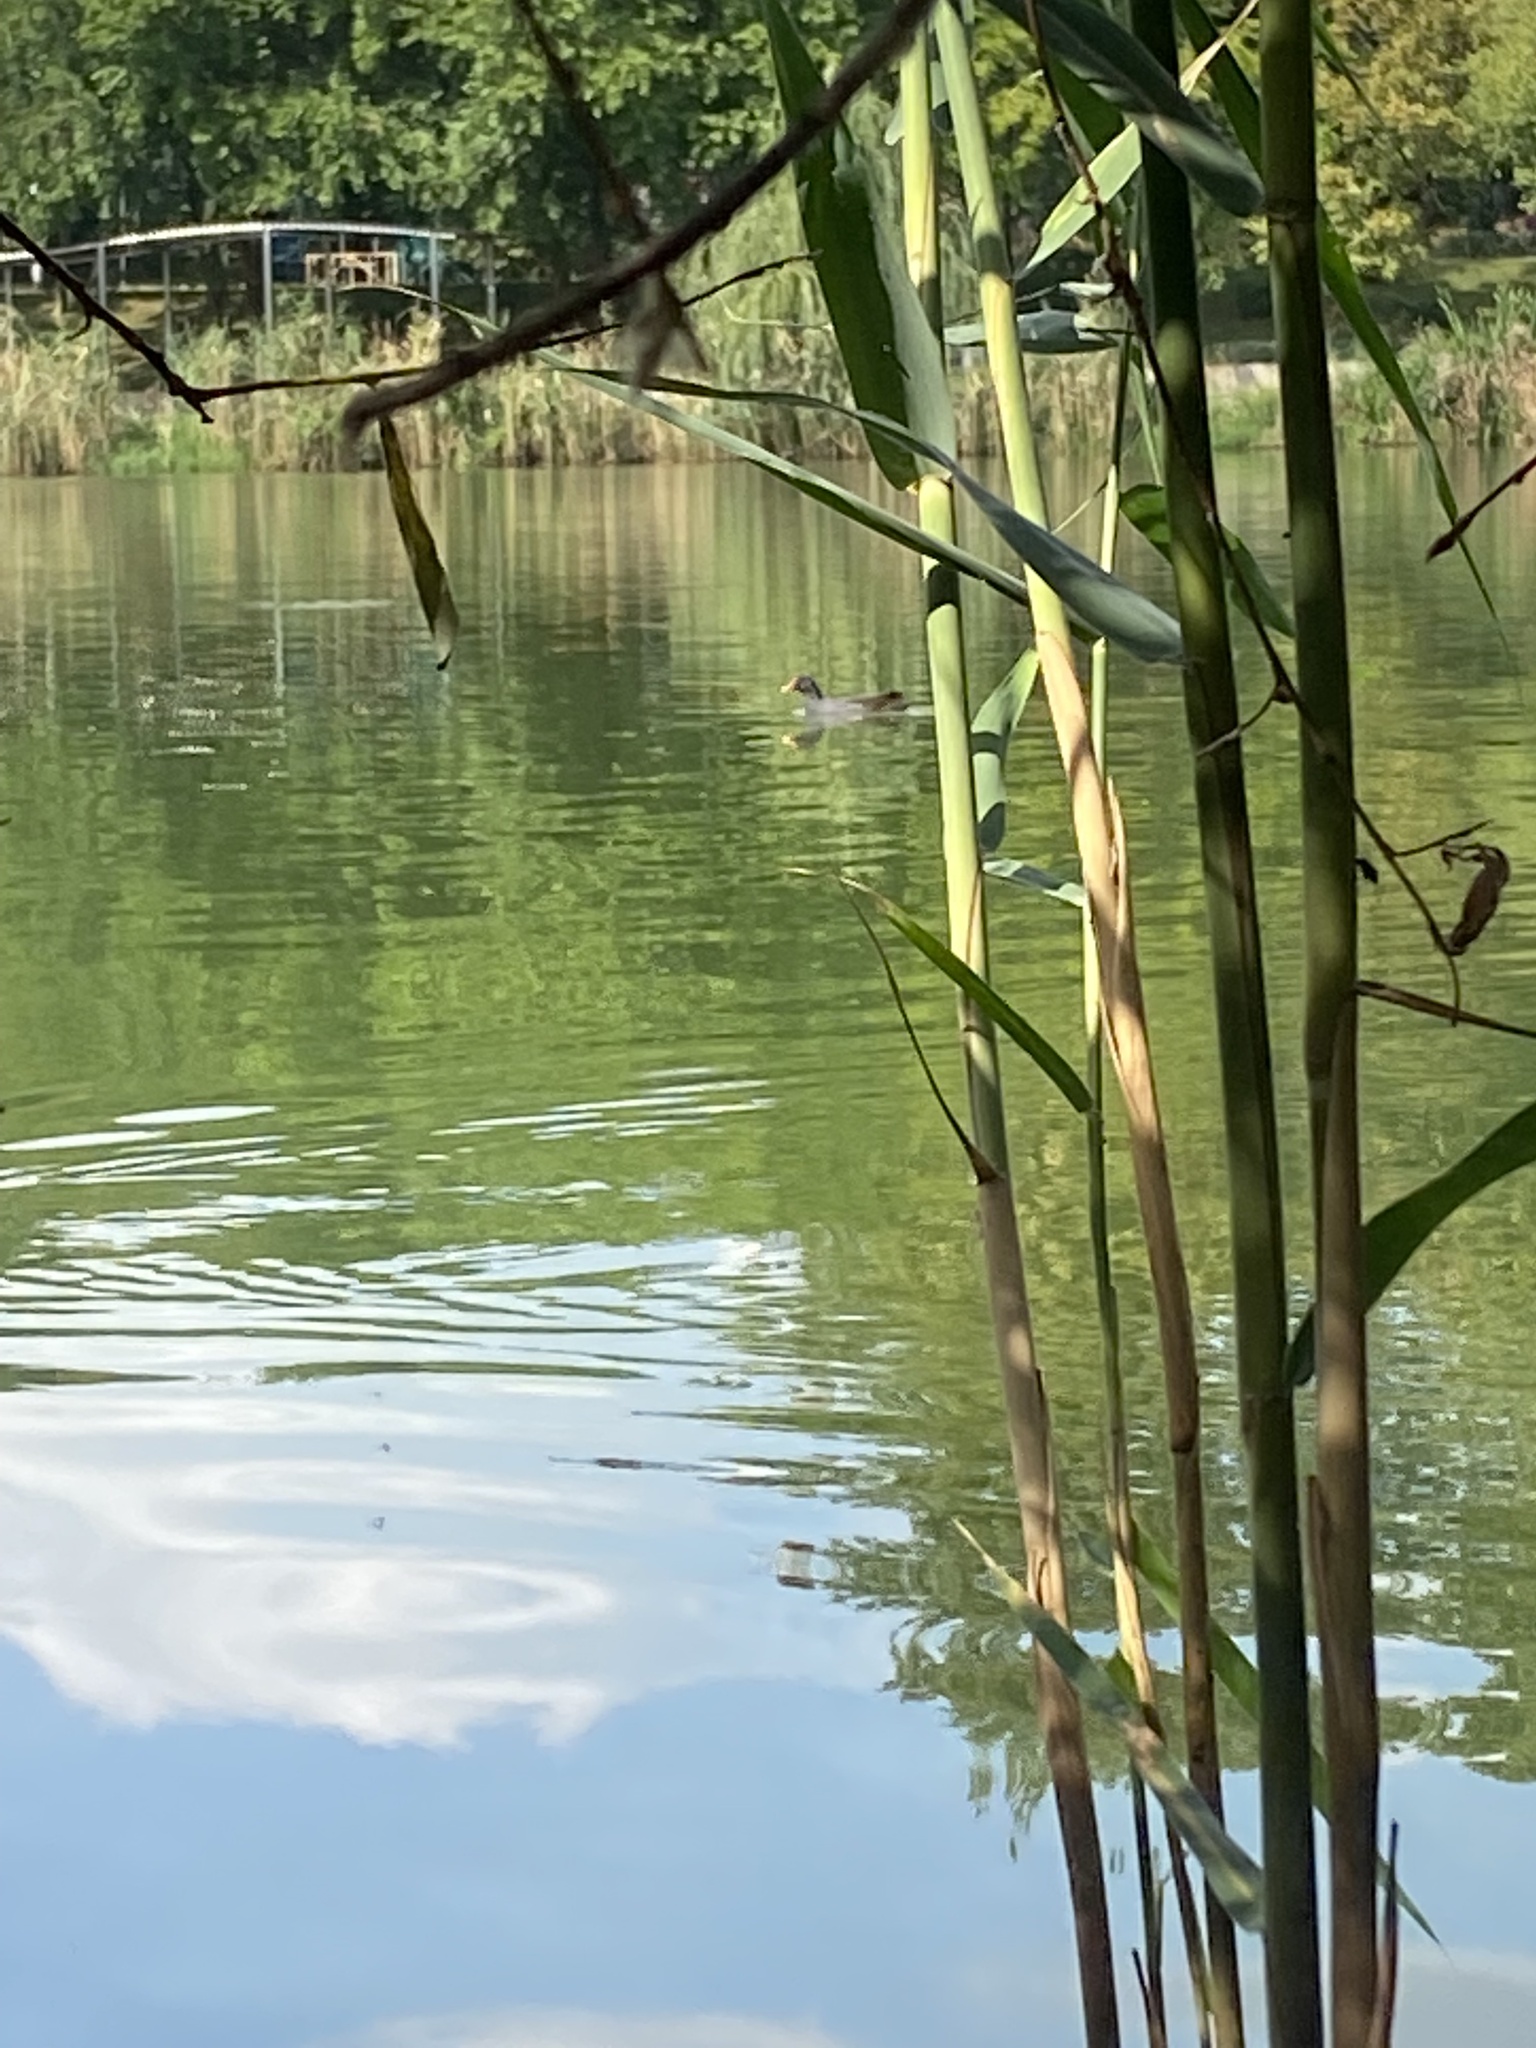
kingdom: Animalia
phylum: Chordata
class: Aves
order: Gruiformes
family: Rallidae
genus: Gallinula
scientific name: Gallinula chloropus
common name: Common moorhen
